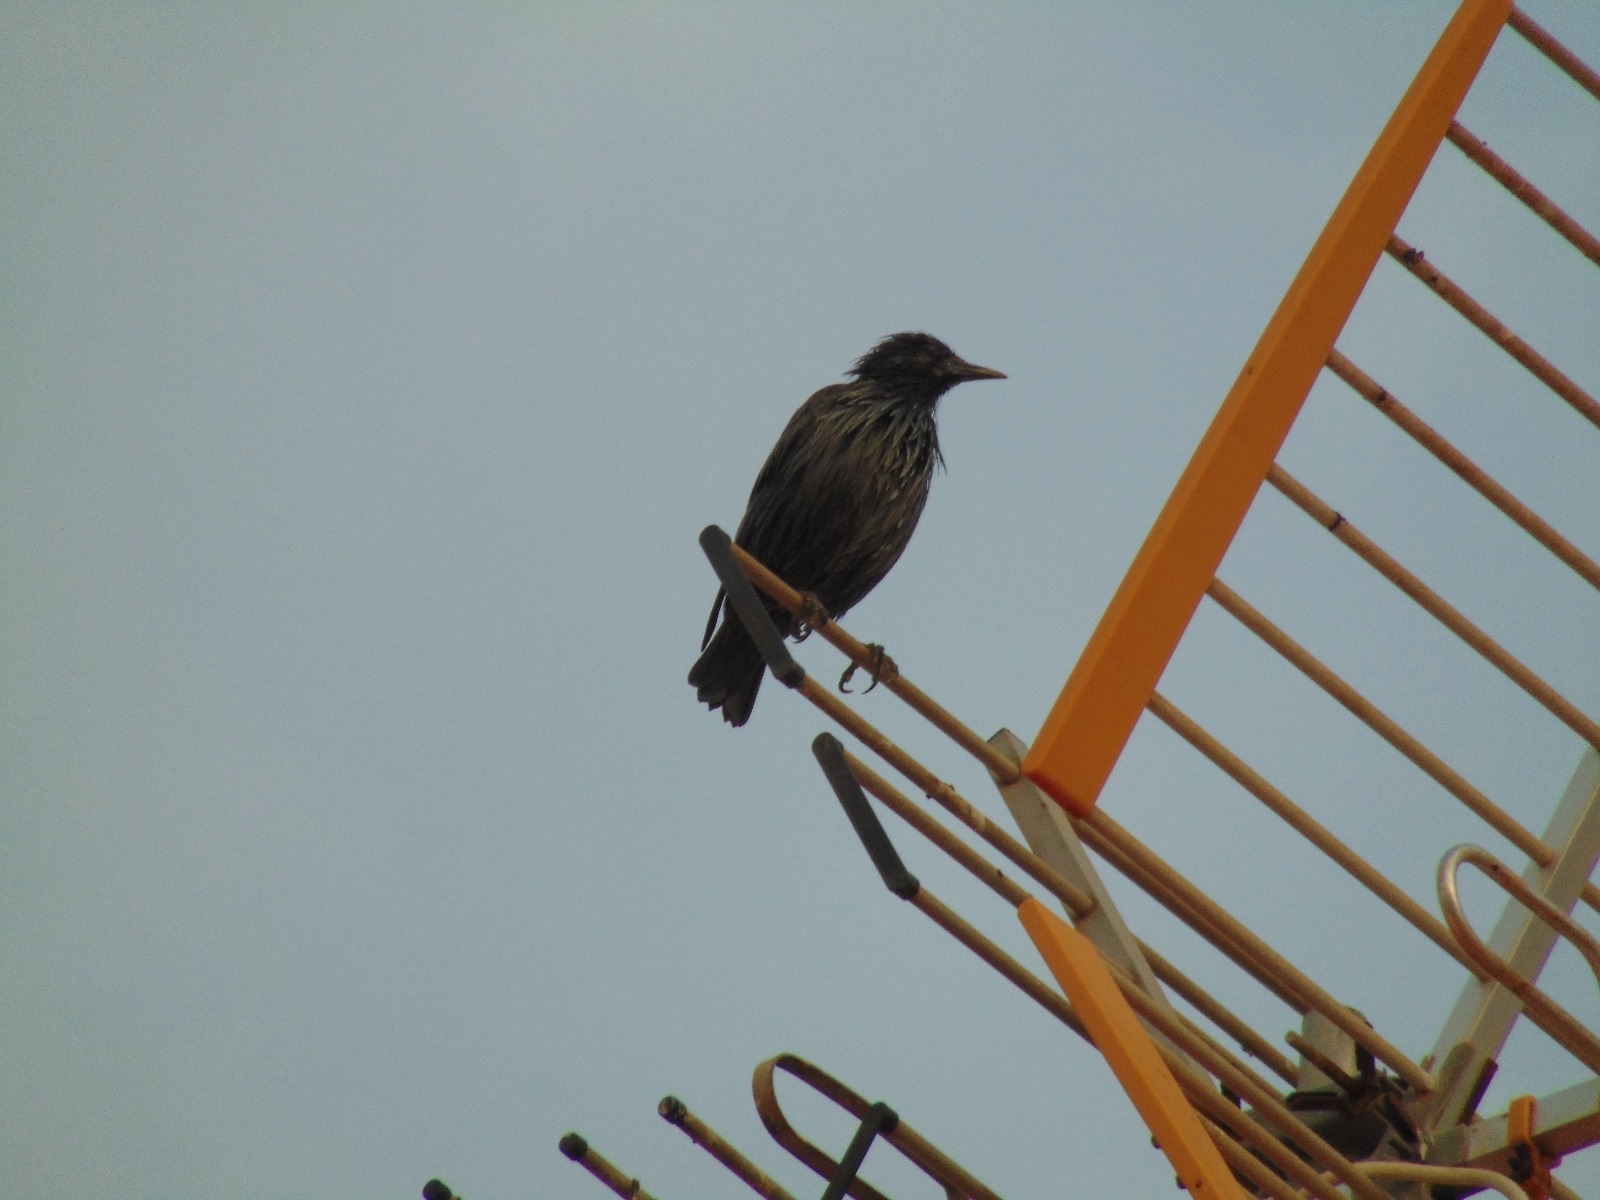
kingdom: Animalia
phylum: Chordata
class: Aves
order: Passeriformes
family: Sturnidae
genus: Sturnus
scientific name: Sturnus unicolor
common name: Spotless starling
